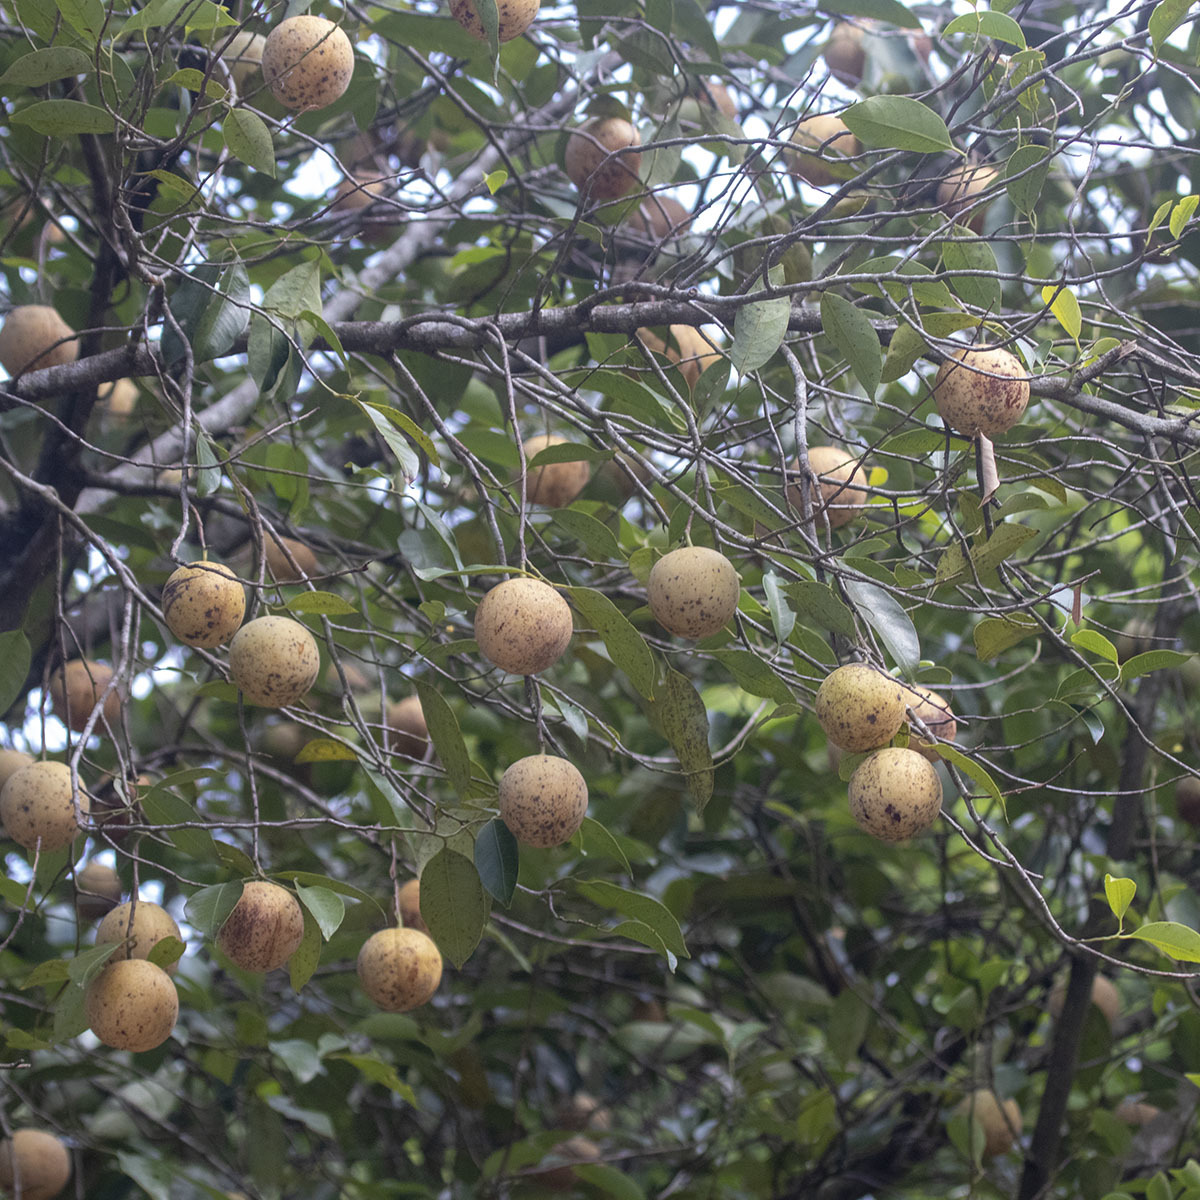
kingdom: Plantae
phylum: Tracheophyta
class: Magnoliopsida
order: Magnoliales
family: Myristicaceae
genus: Myristica
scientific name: Myristica fragrans
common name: Nutmeg
